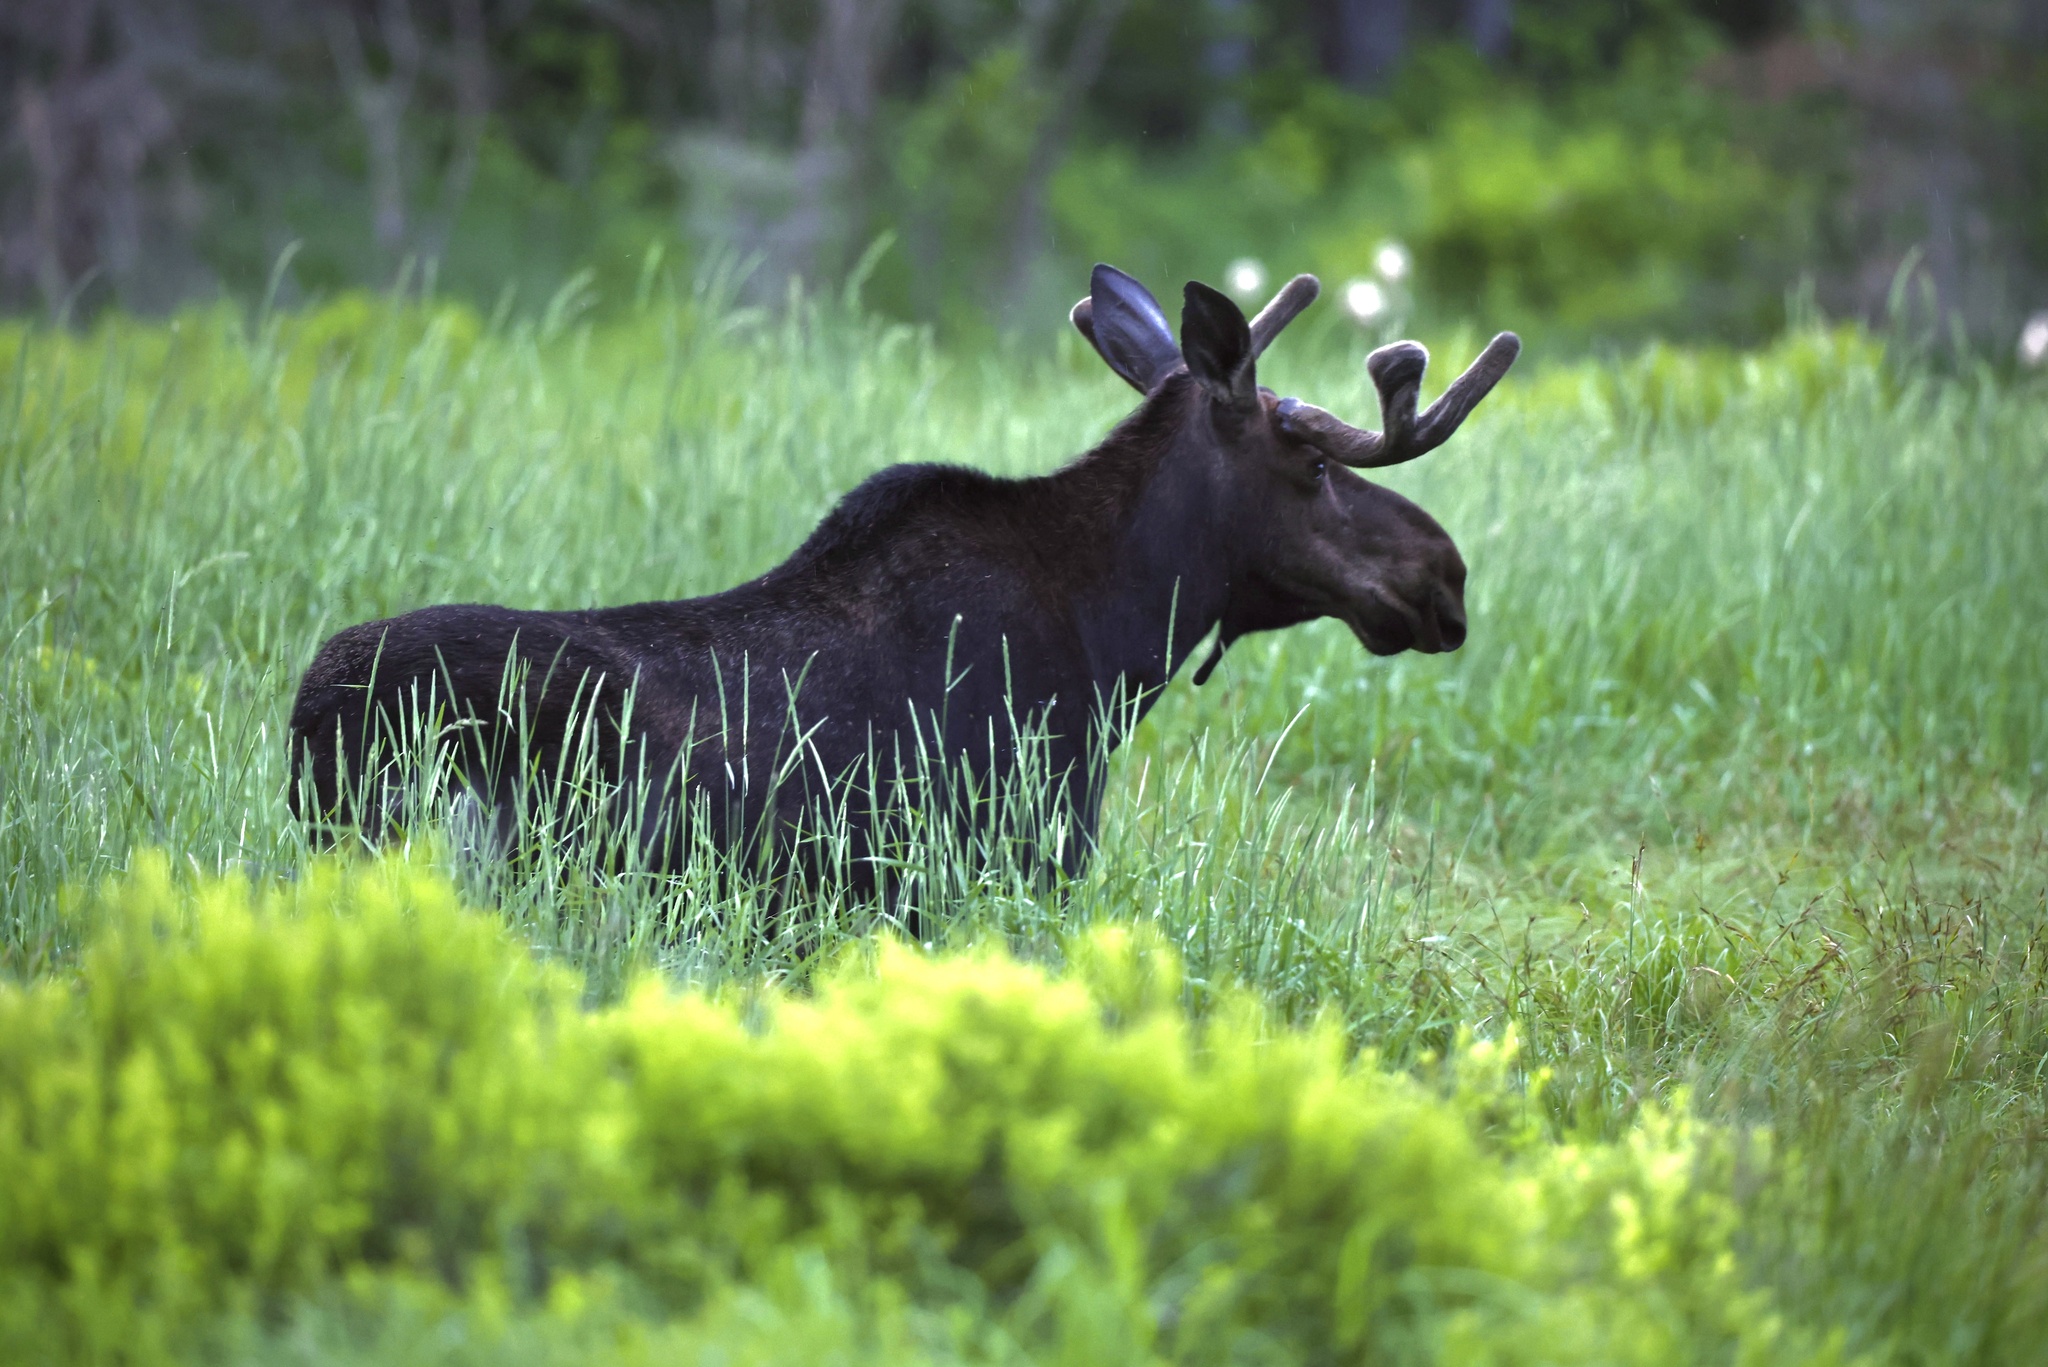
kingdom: Animalia
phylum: Chordata
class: Mammalia
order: Artiodactyla
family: Cervidae
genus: Alces
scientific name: Alces alces
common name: Moose
